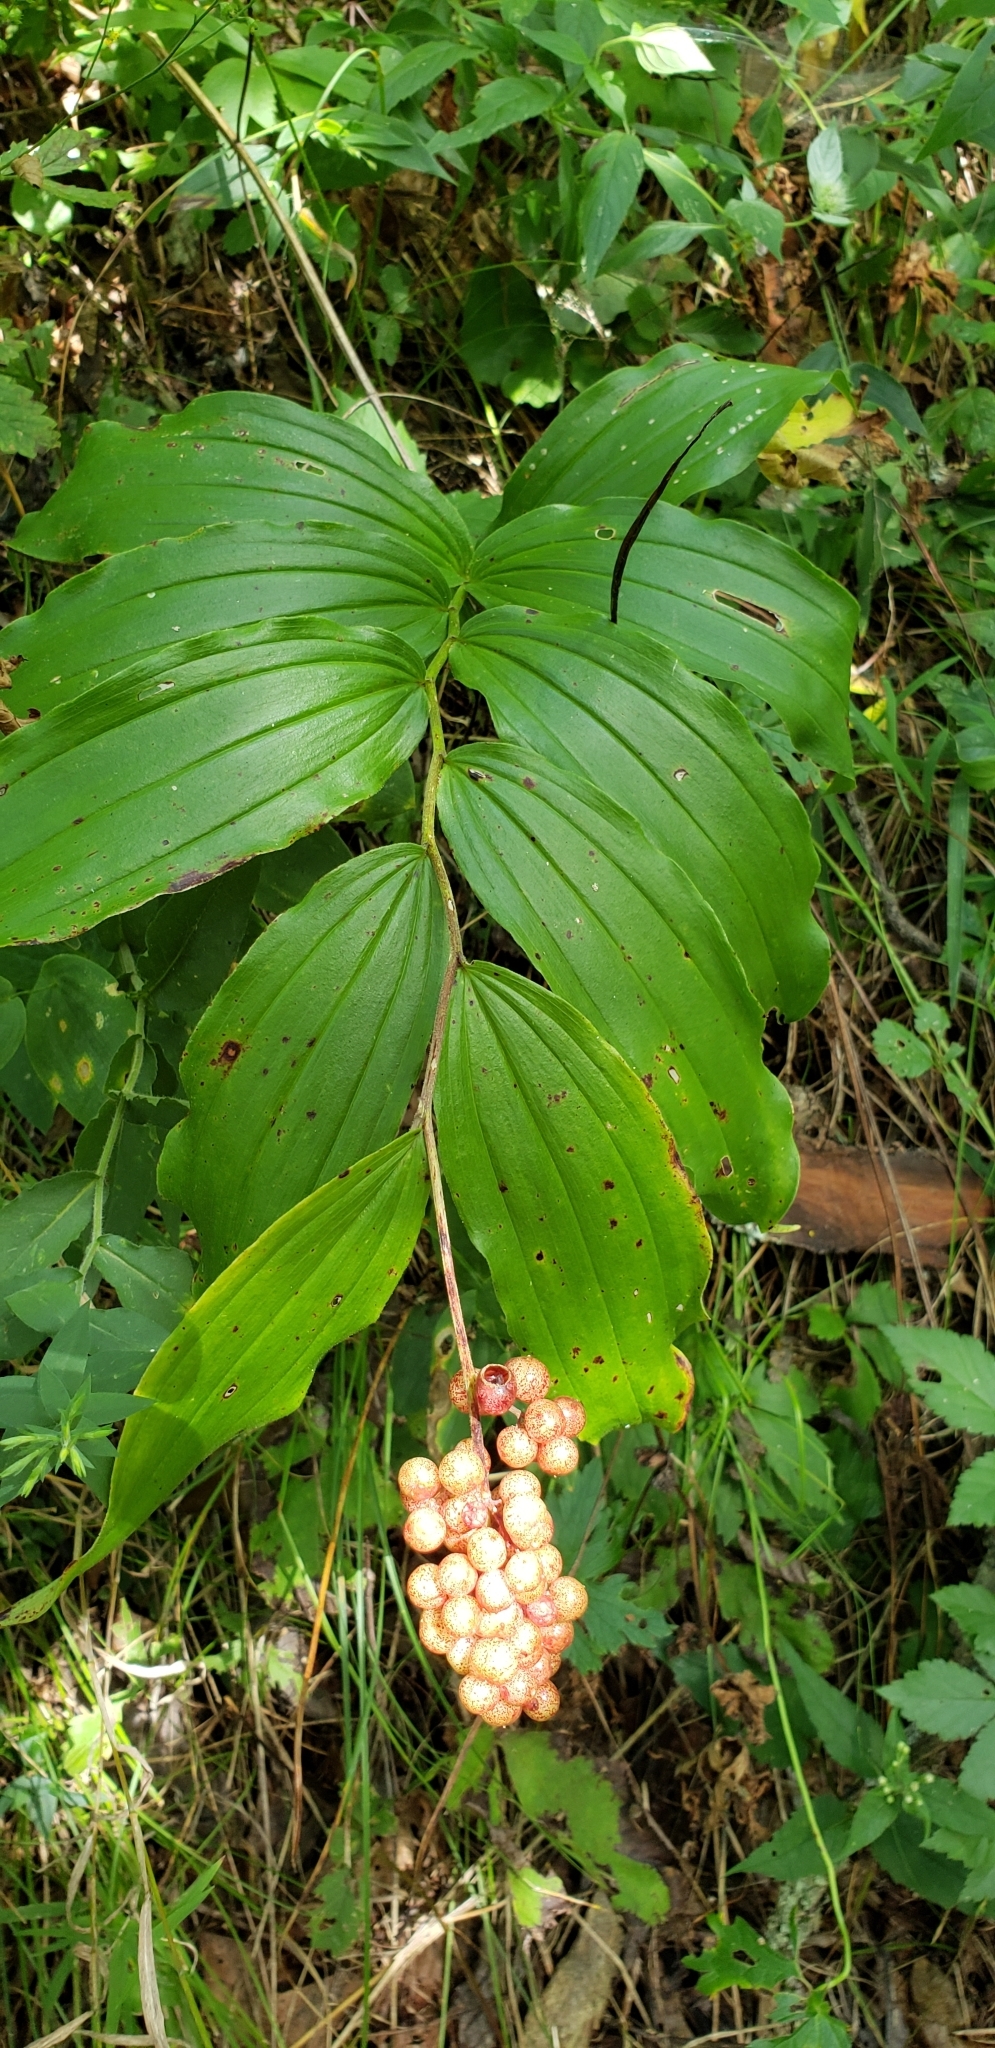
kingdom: Plantae
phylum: Tracheophyta
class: Liliopsida
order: Asparagales
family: Asparagaceae
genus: Maianthemum
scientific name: Maianthemum racemosum
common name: False spikenard
